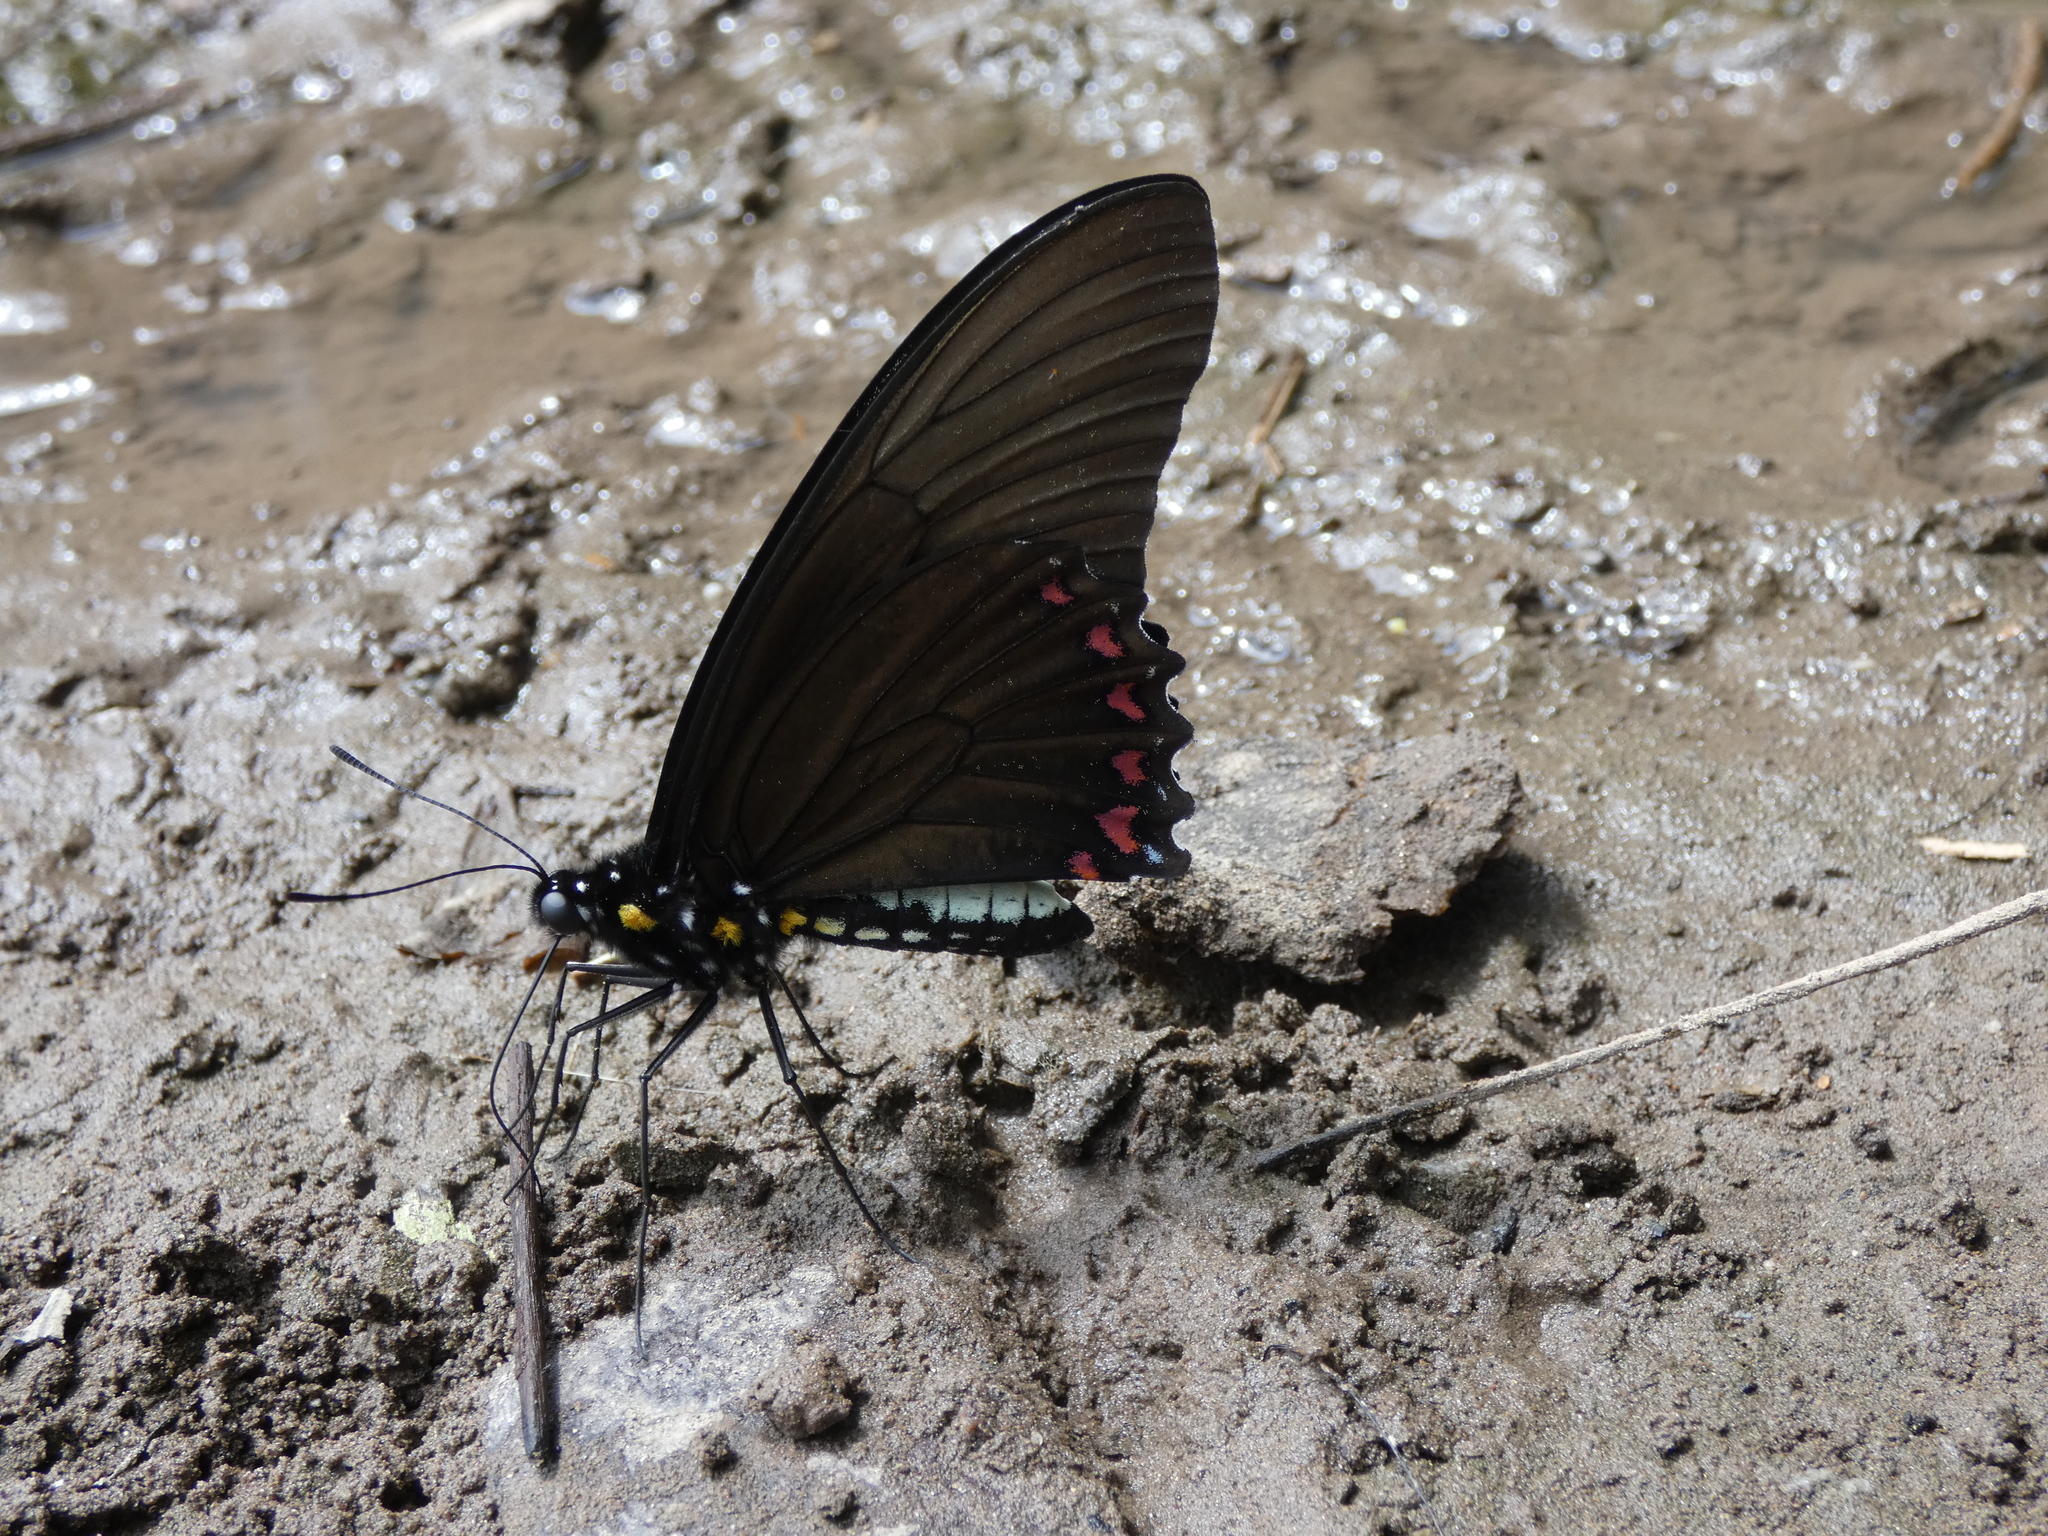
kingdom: Animalia
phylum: Arthropoda
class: Insecta
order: Lepidoptera
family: Papilionidae
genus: Battus
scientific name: Battus belus
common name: Belus swallowtail
